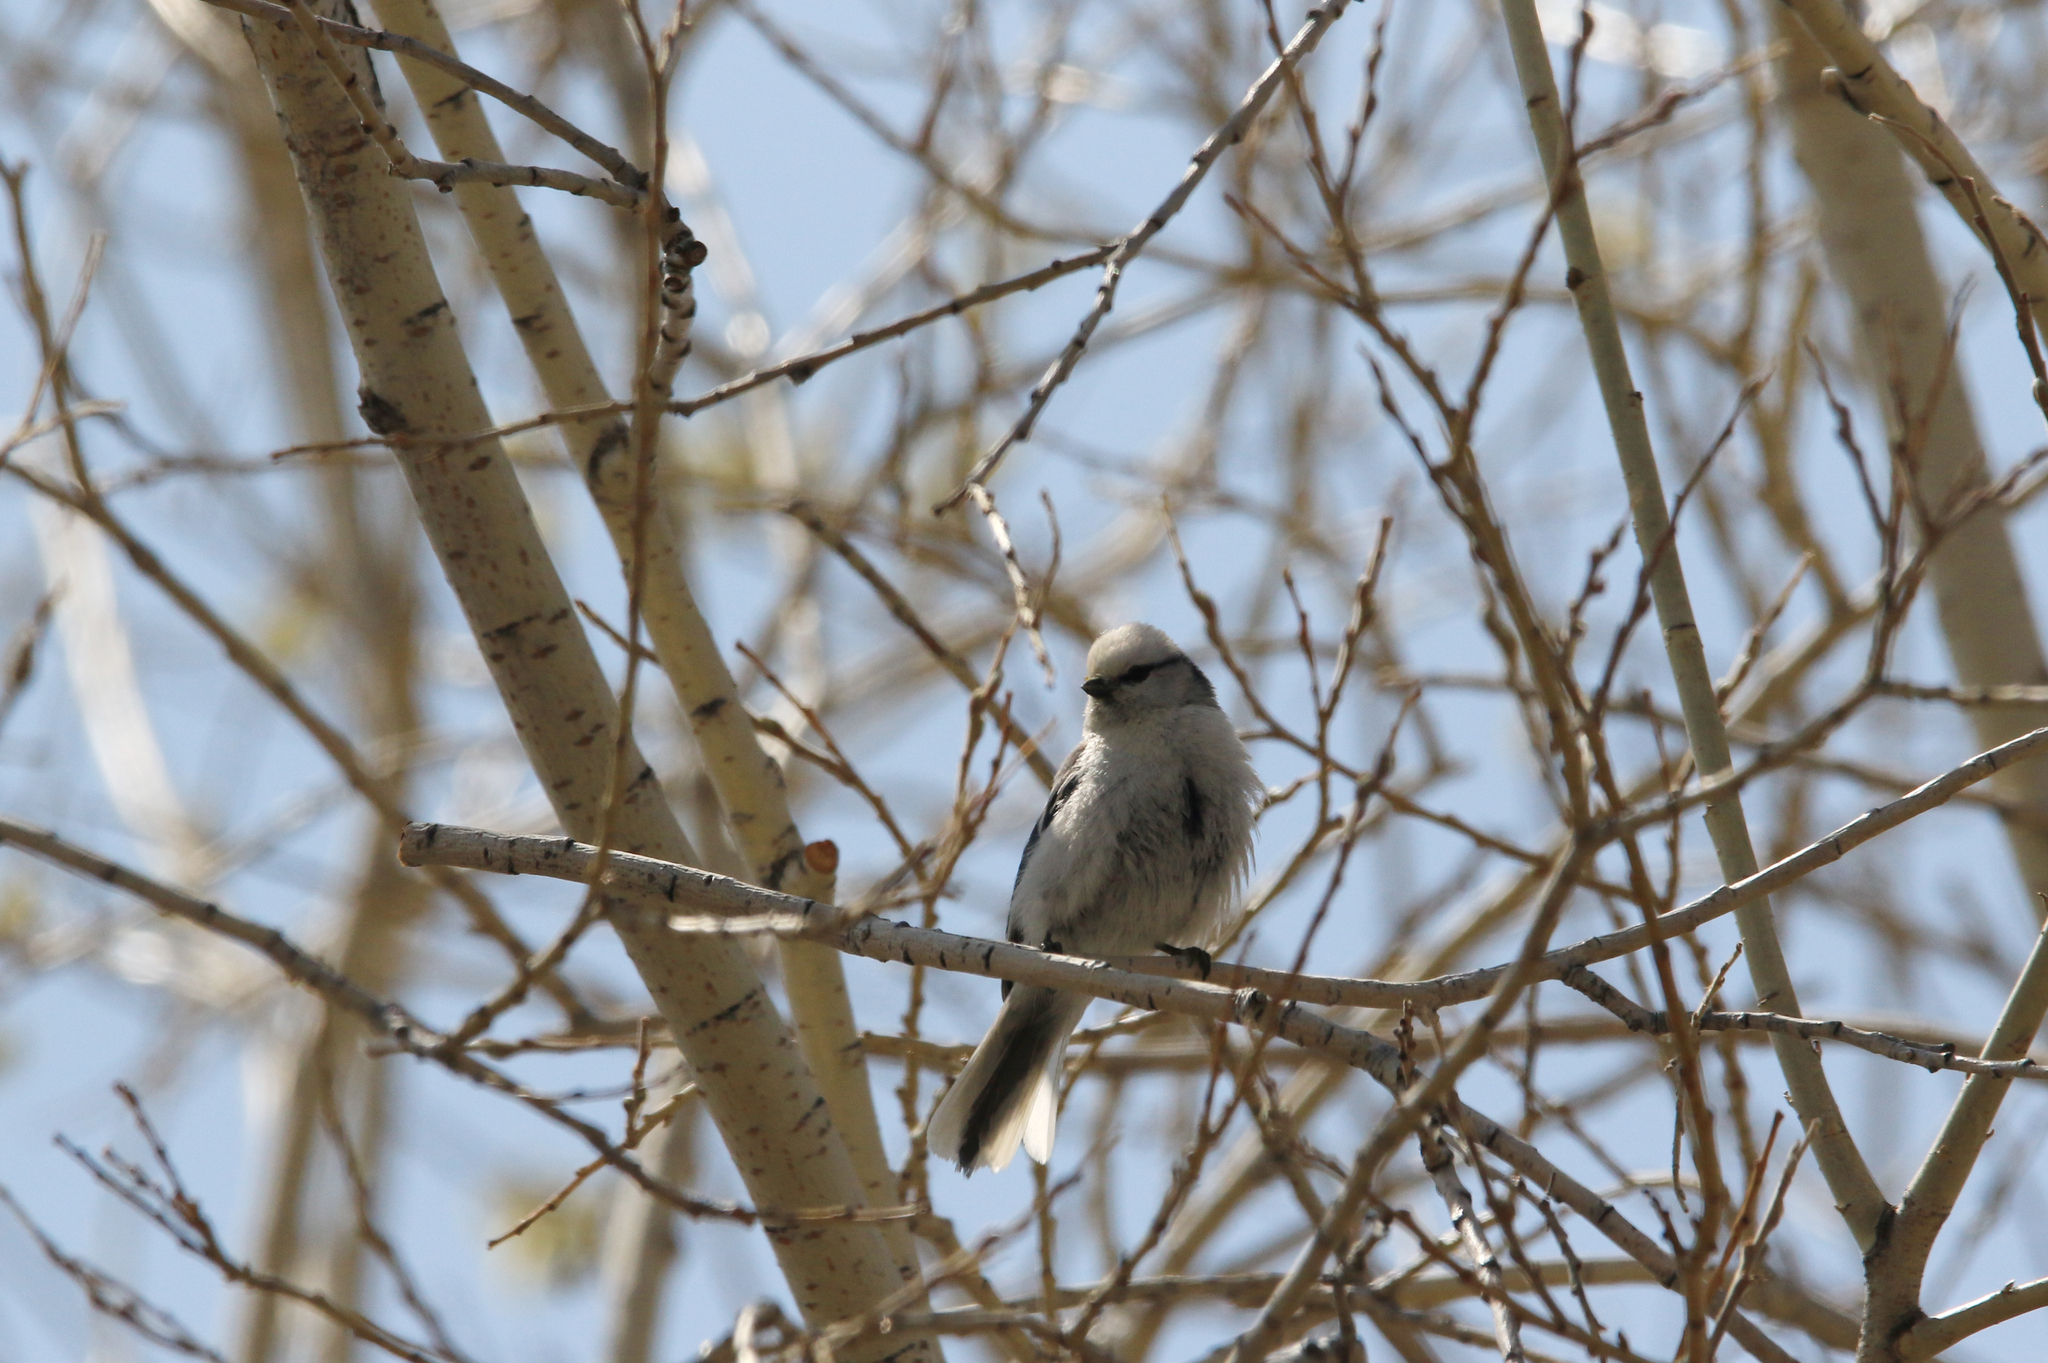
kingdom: Animalia
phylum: Chordata
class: Aves
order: Passeriformes
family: Paridae
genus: Cyanistes
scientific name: Cyanistes cyanus
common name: Azure tit
